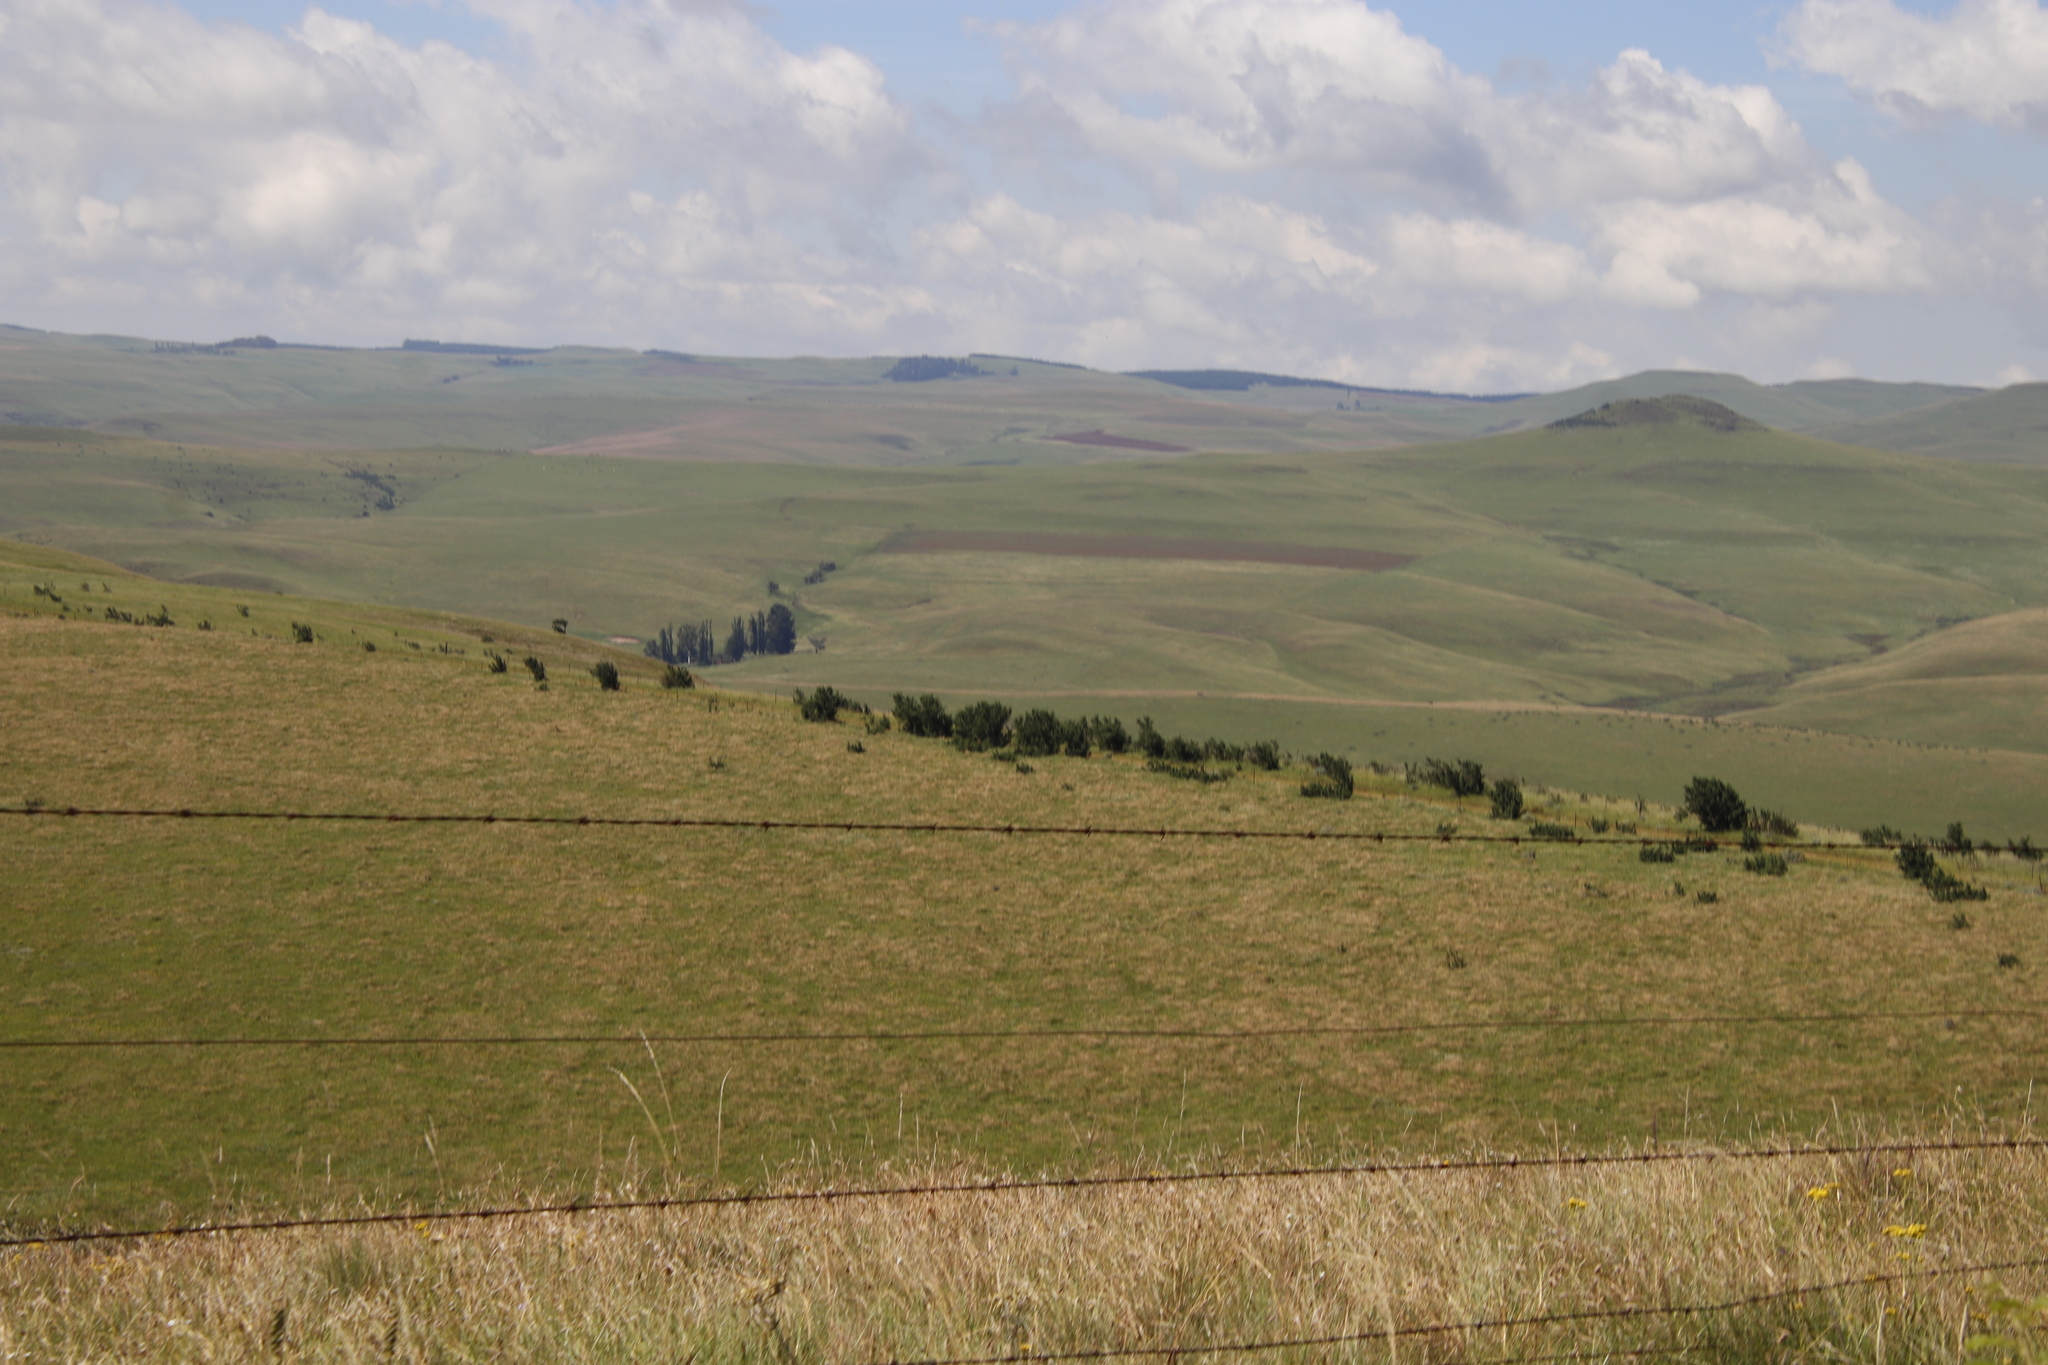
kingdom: Plantae
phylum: Tracheophyta
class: Magnoliopsida
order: Rosales
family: Rosaceae
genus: Leucosidea
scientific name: Leucosidea sericea
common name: Oldwood
